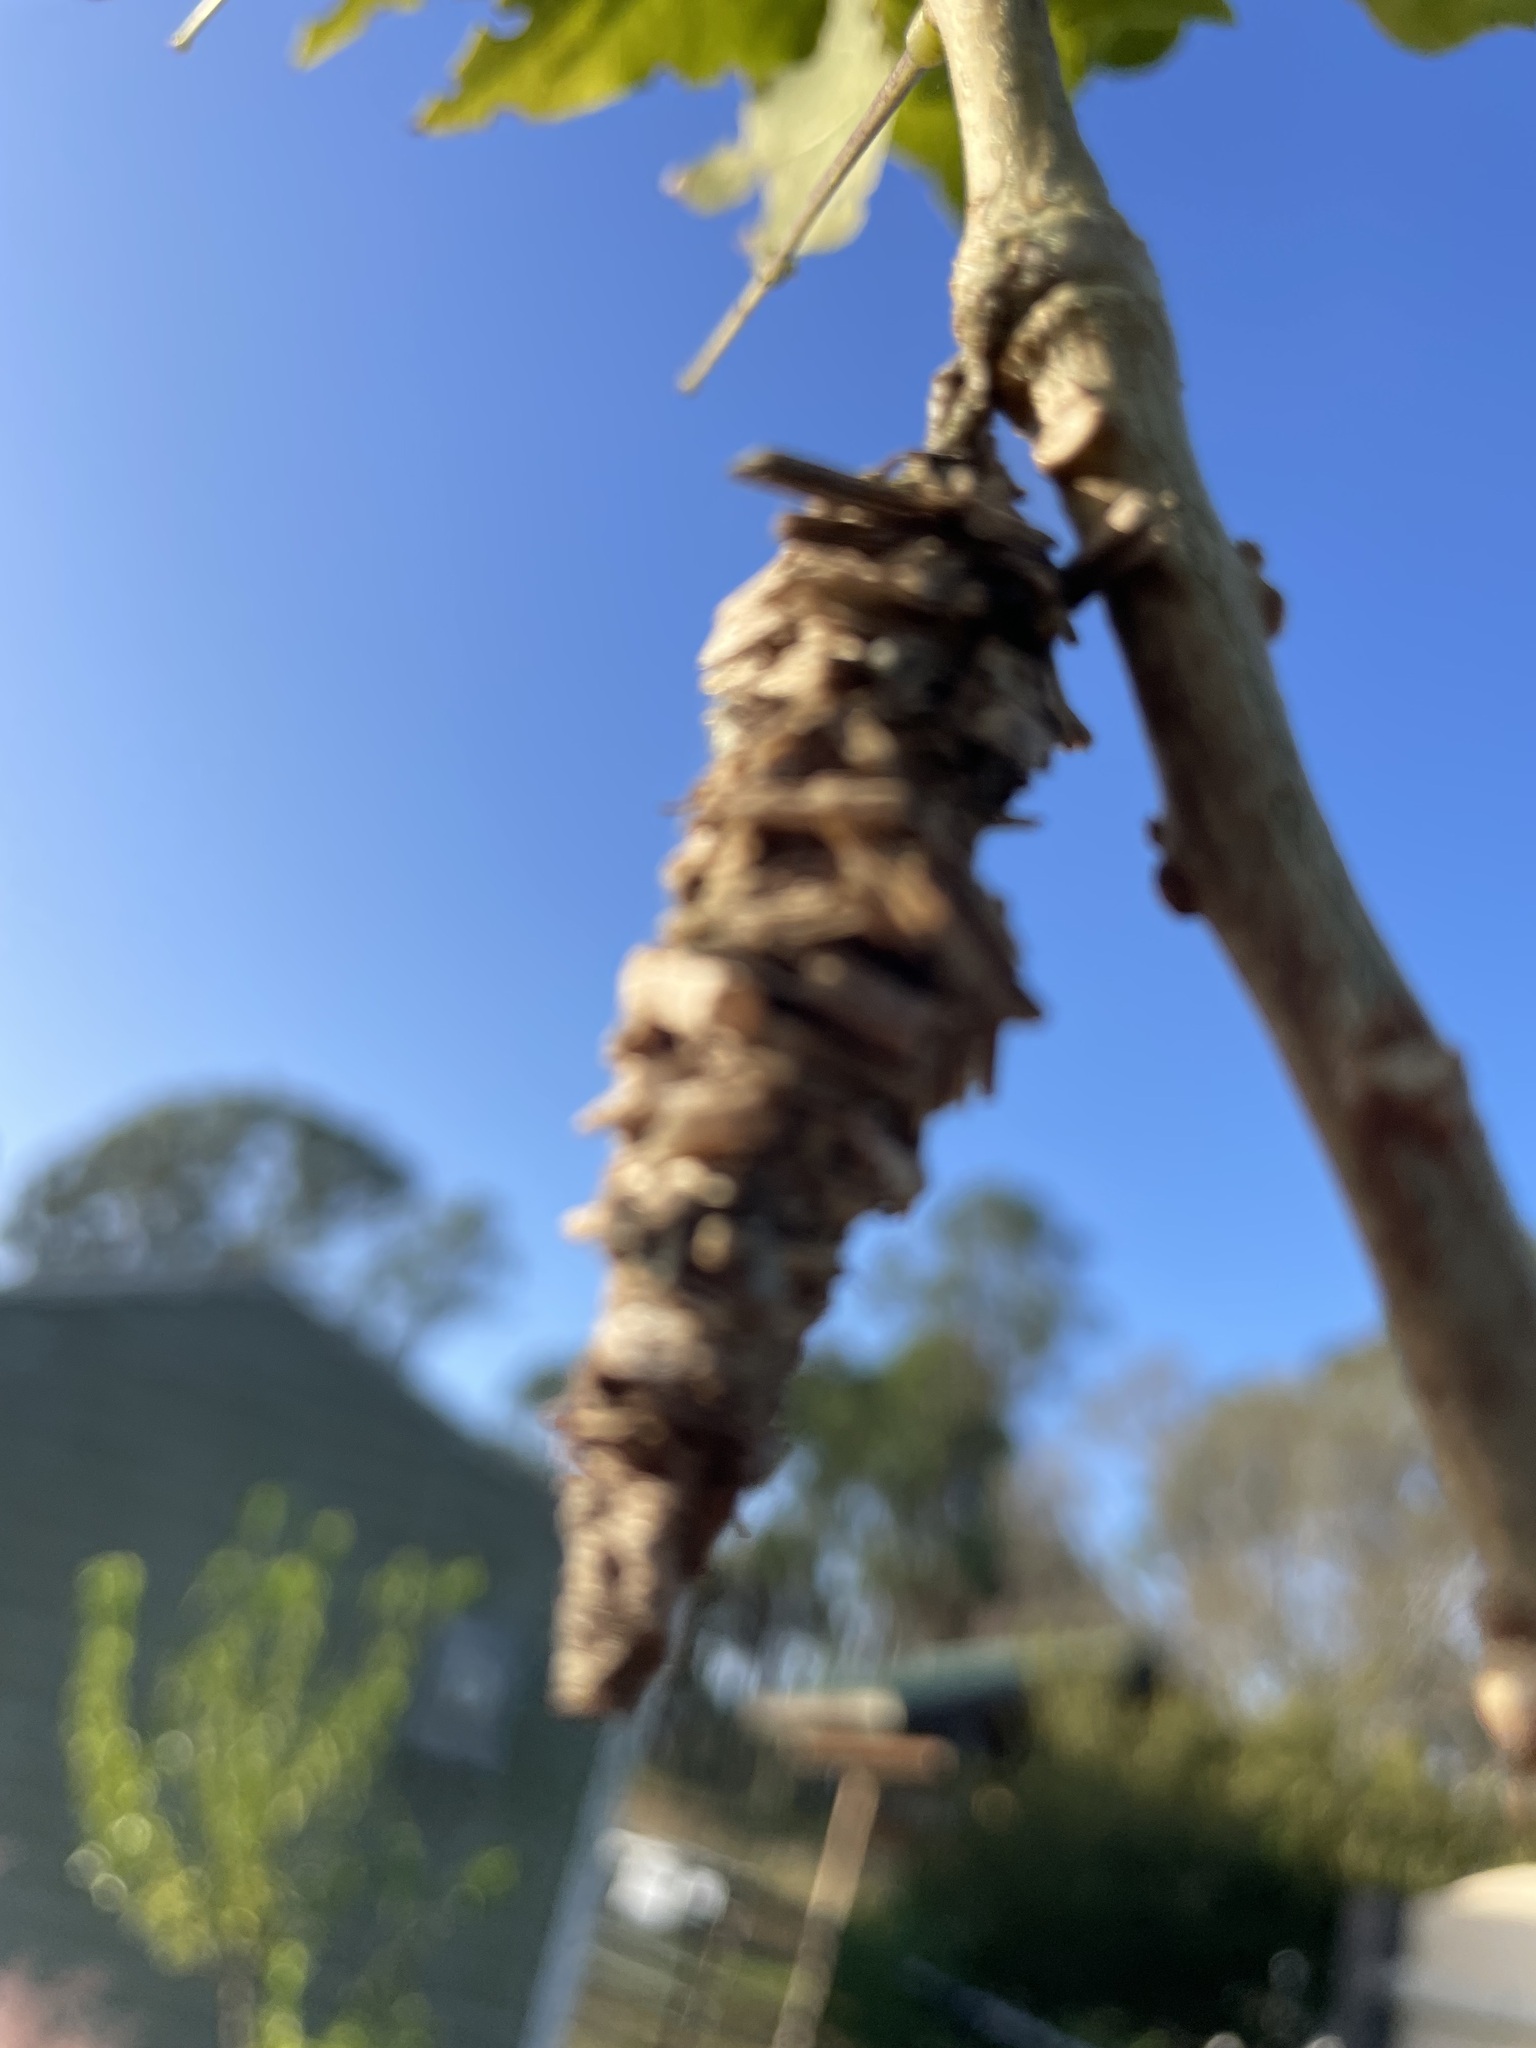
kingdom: Animalia
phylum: Arthropoda
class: Insecta
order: Lepidoptera
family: Psychidae
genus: Oiketicus
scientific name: Oiketicus
